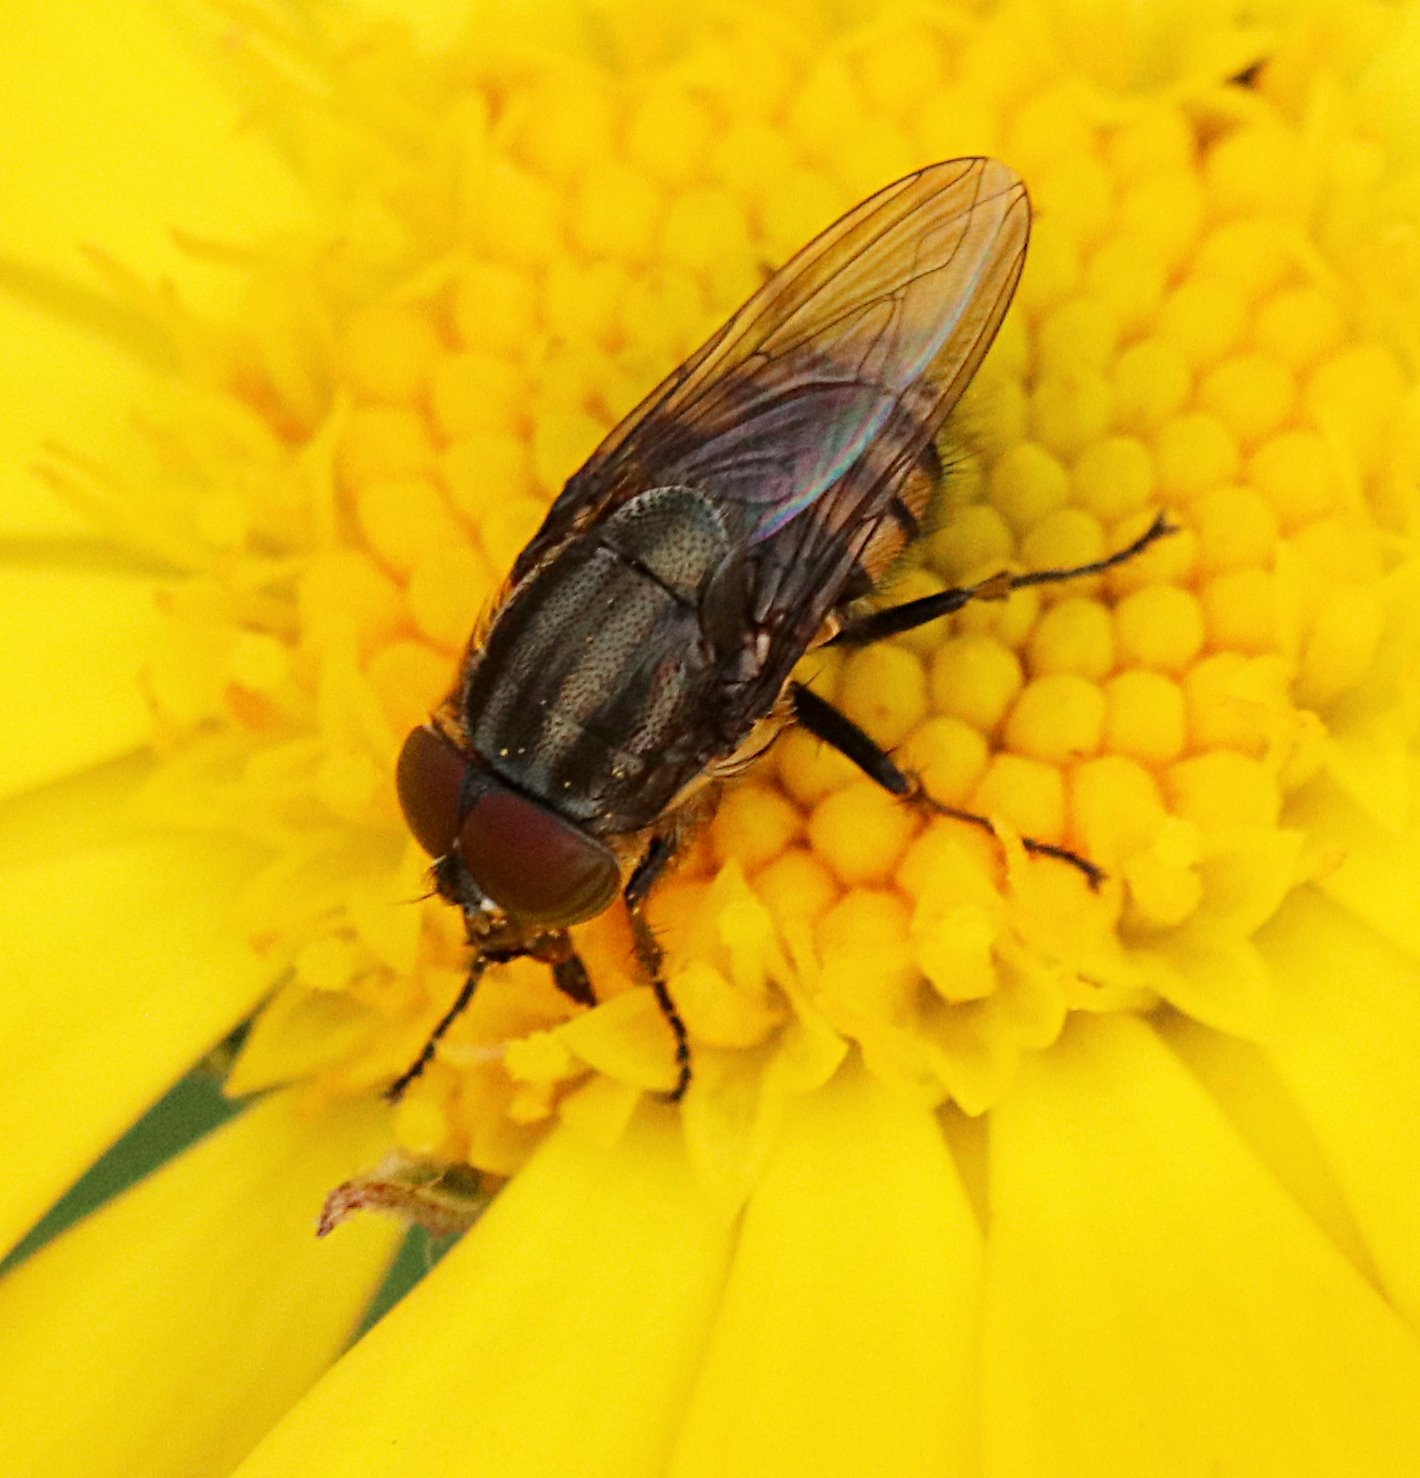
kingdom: Animalia
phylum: Arthropoda
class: Insecta
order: Diptera
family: Calliphoridae
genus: Stomorhina
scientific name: Stomorhina lunata
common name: Locust blowfly
